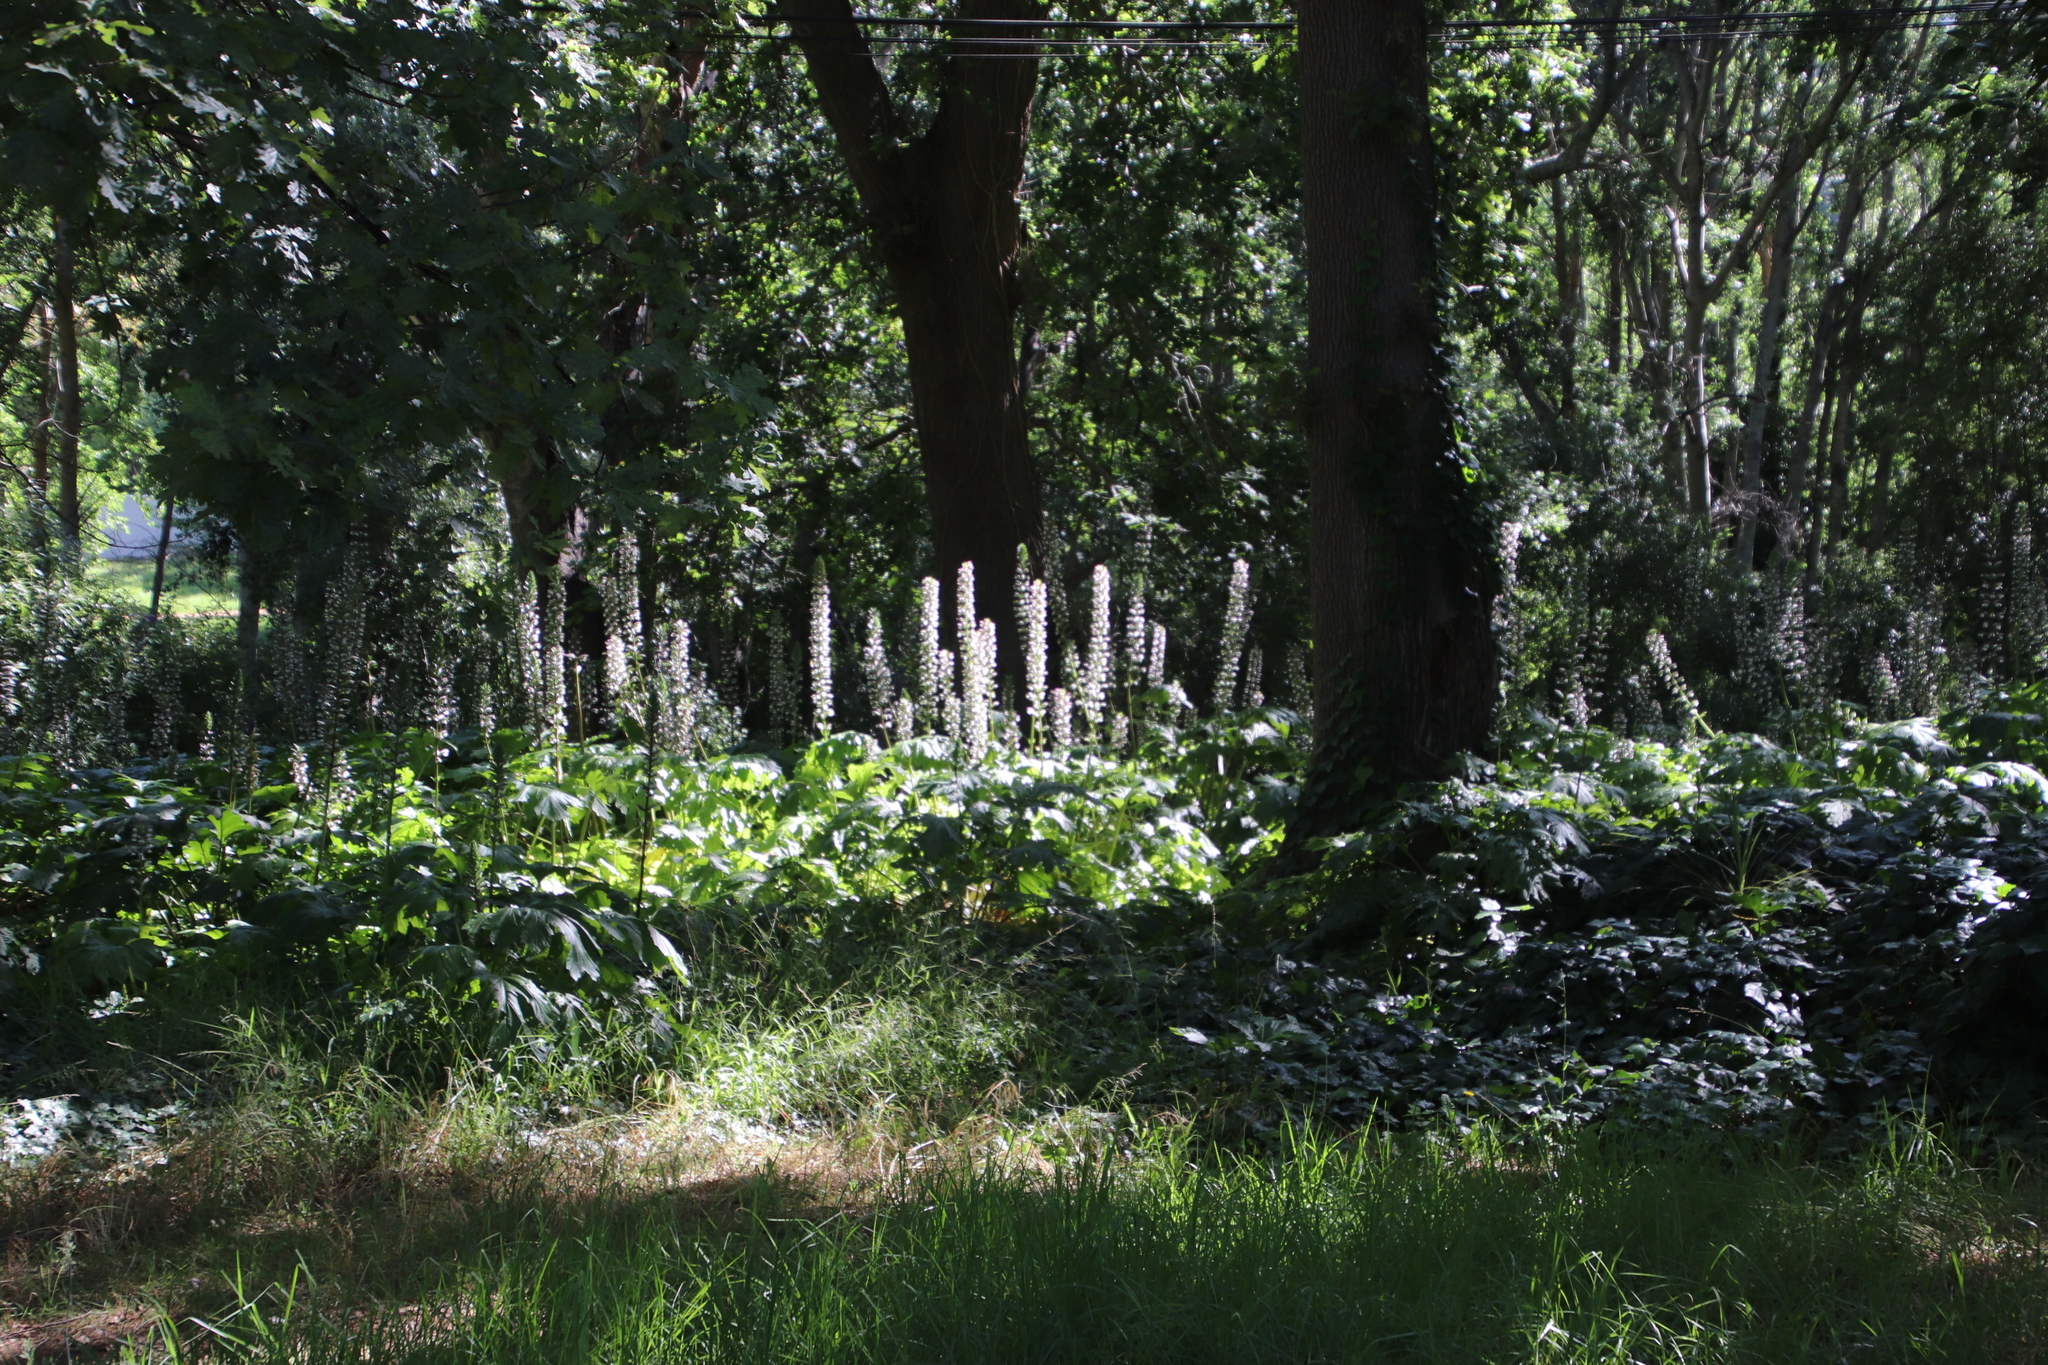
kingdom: Plantae
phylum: Tracheophyta
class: Magnoliopsida
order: Lamiales
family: Acanthaceae
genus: Acanthus
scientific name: Acanthus mollis
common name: Bear's-breech
